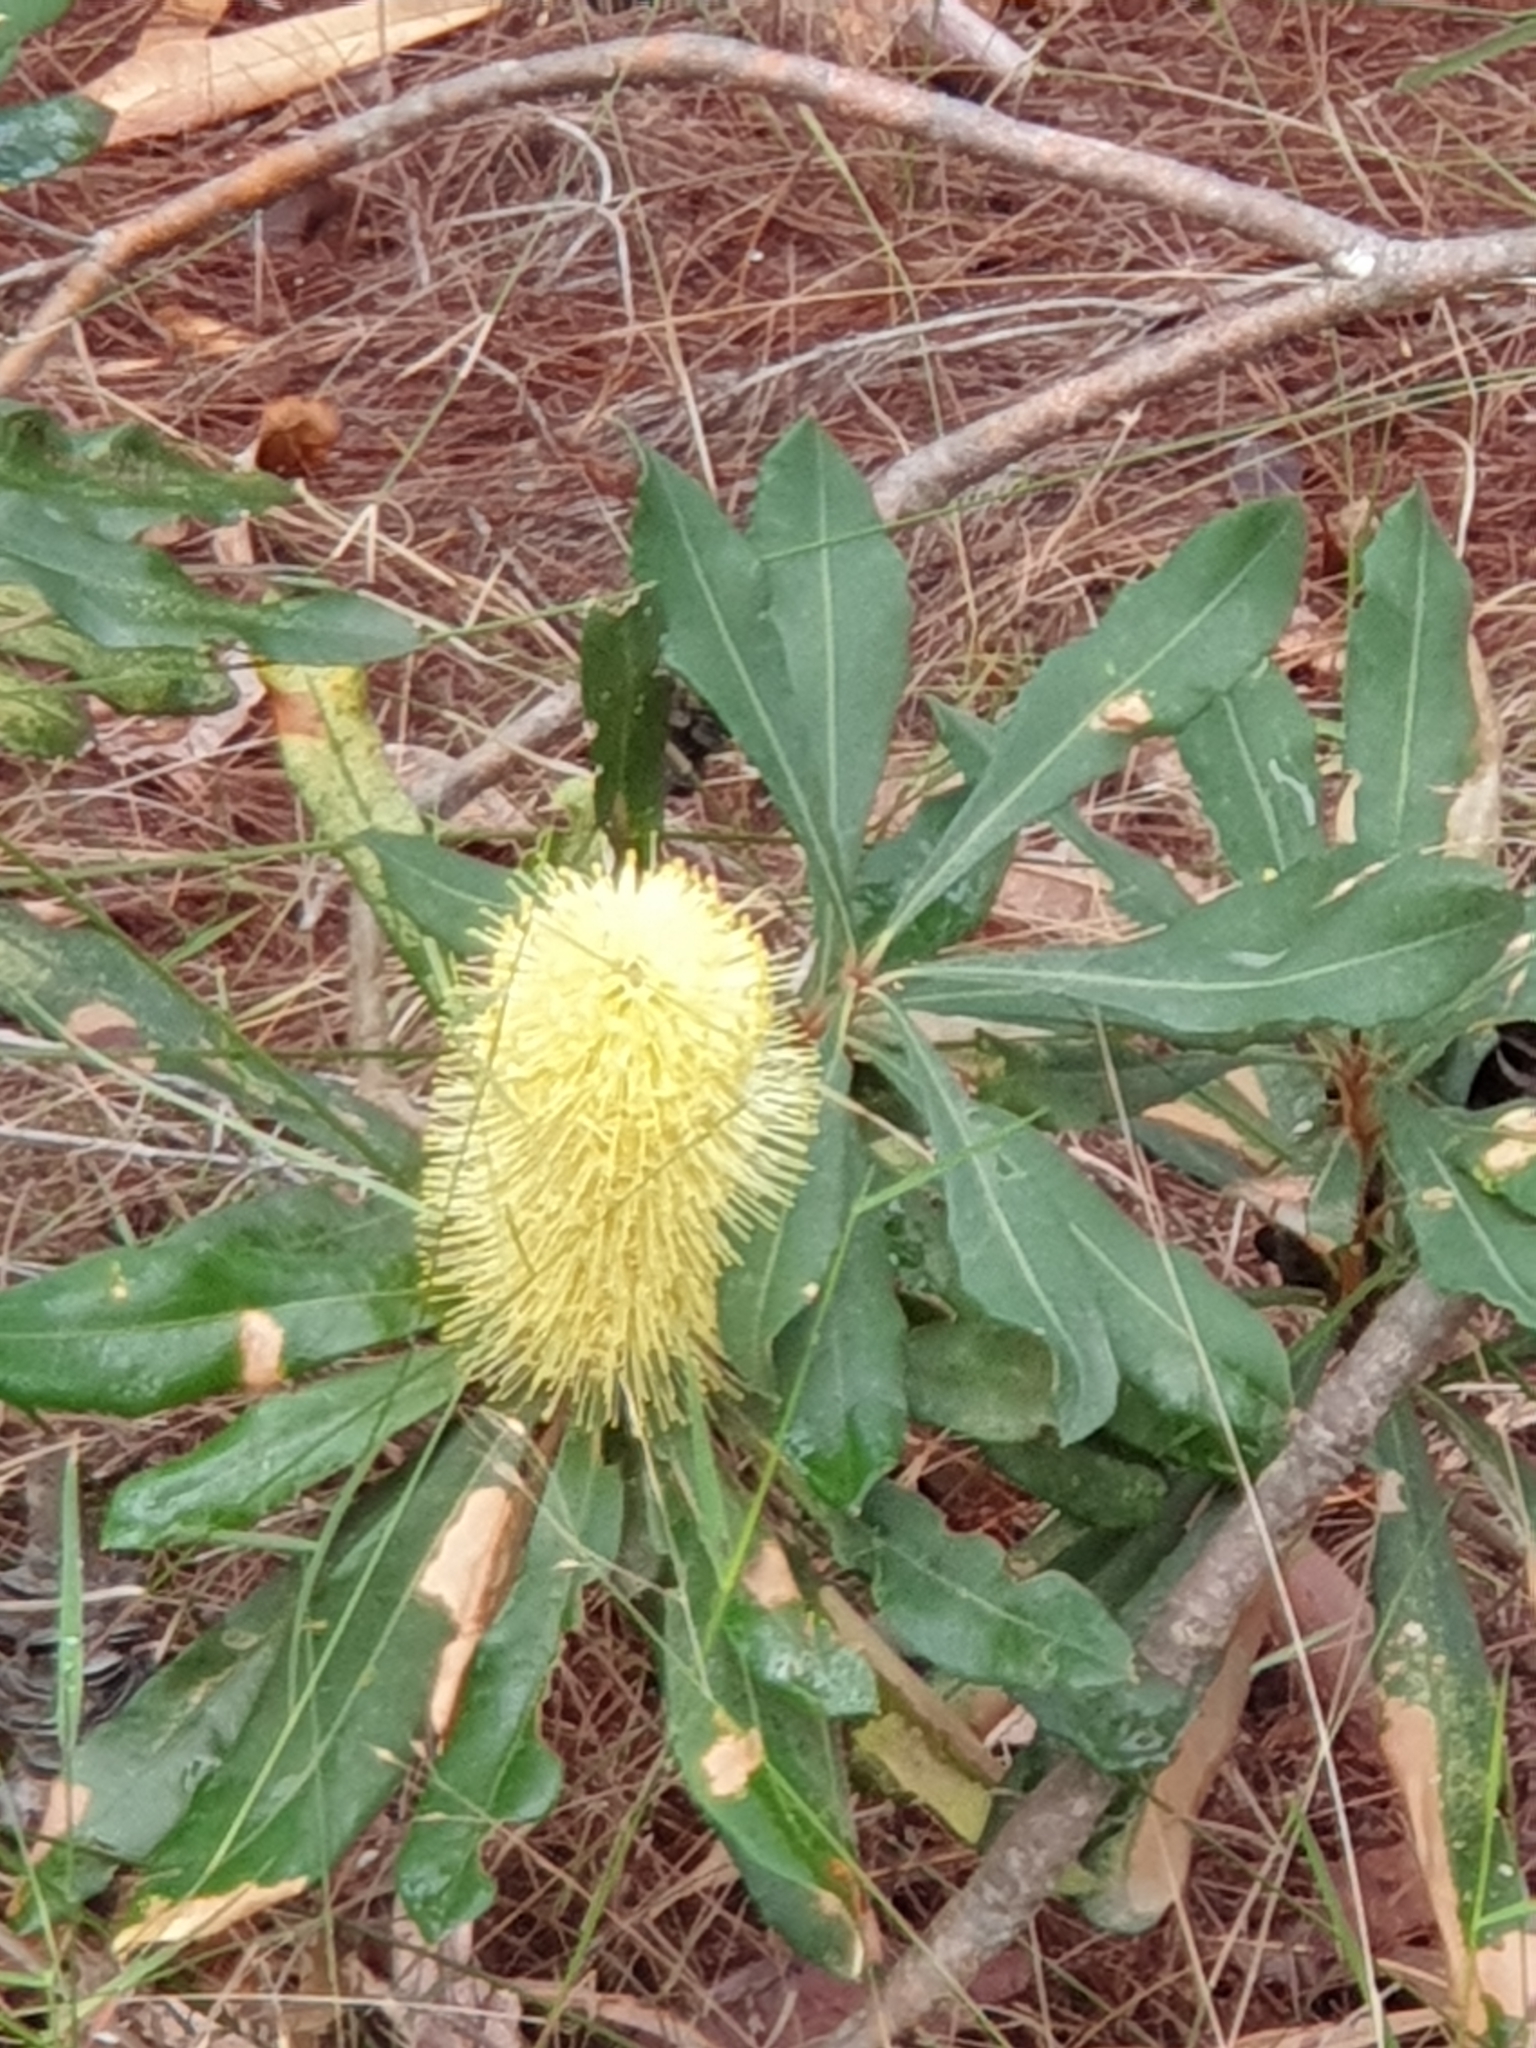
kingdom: Plantae
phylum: Tracheophyta
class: Magnoliopsida
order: Proteales
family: Proteaceae
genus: Banksia
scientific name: Banksia integrifolia
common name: White-honeysuckle
